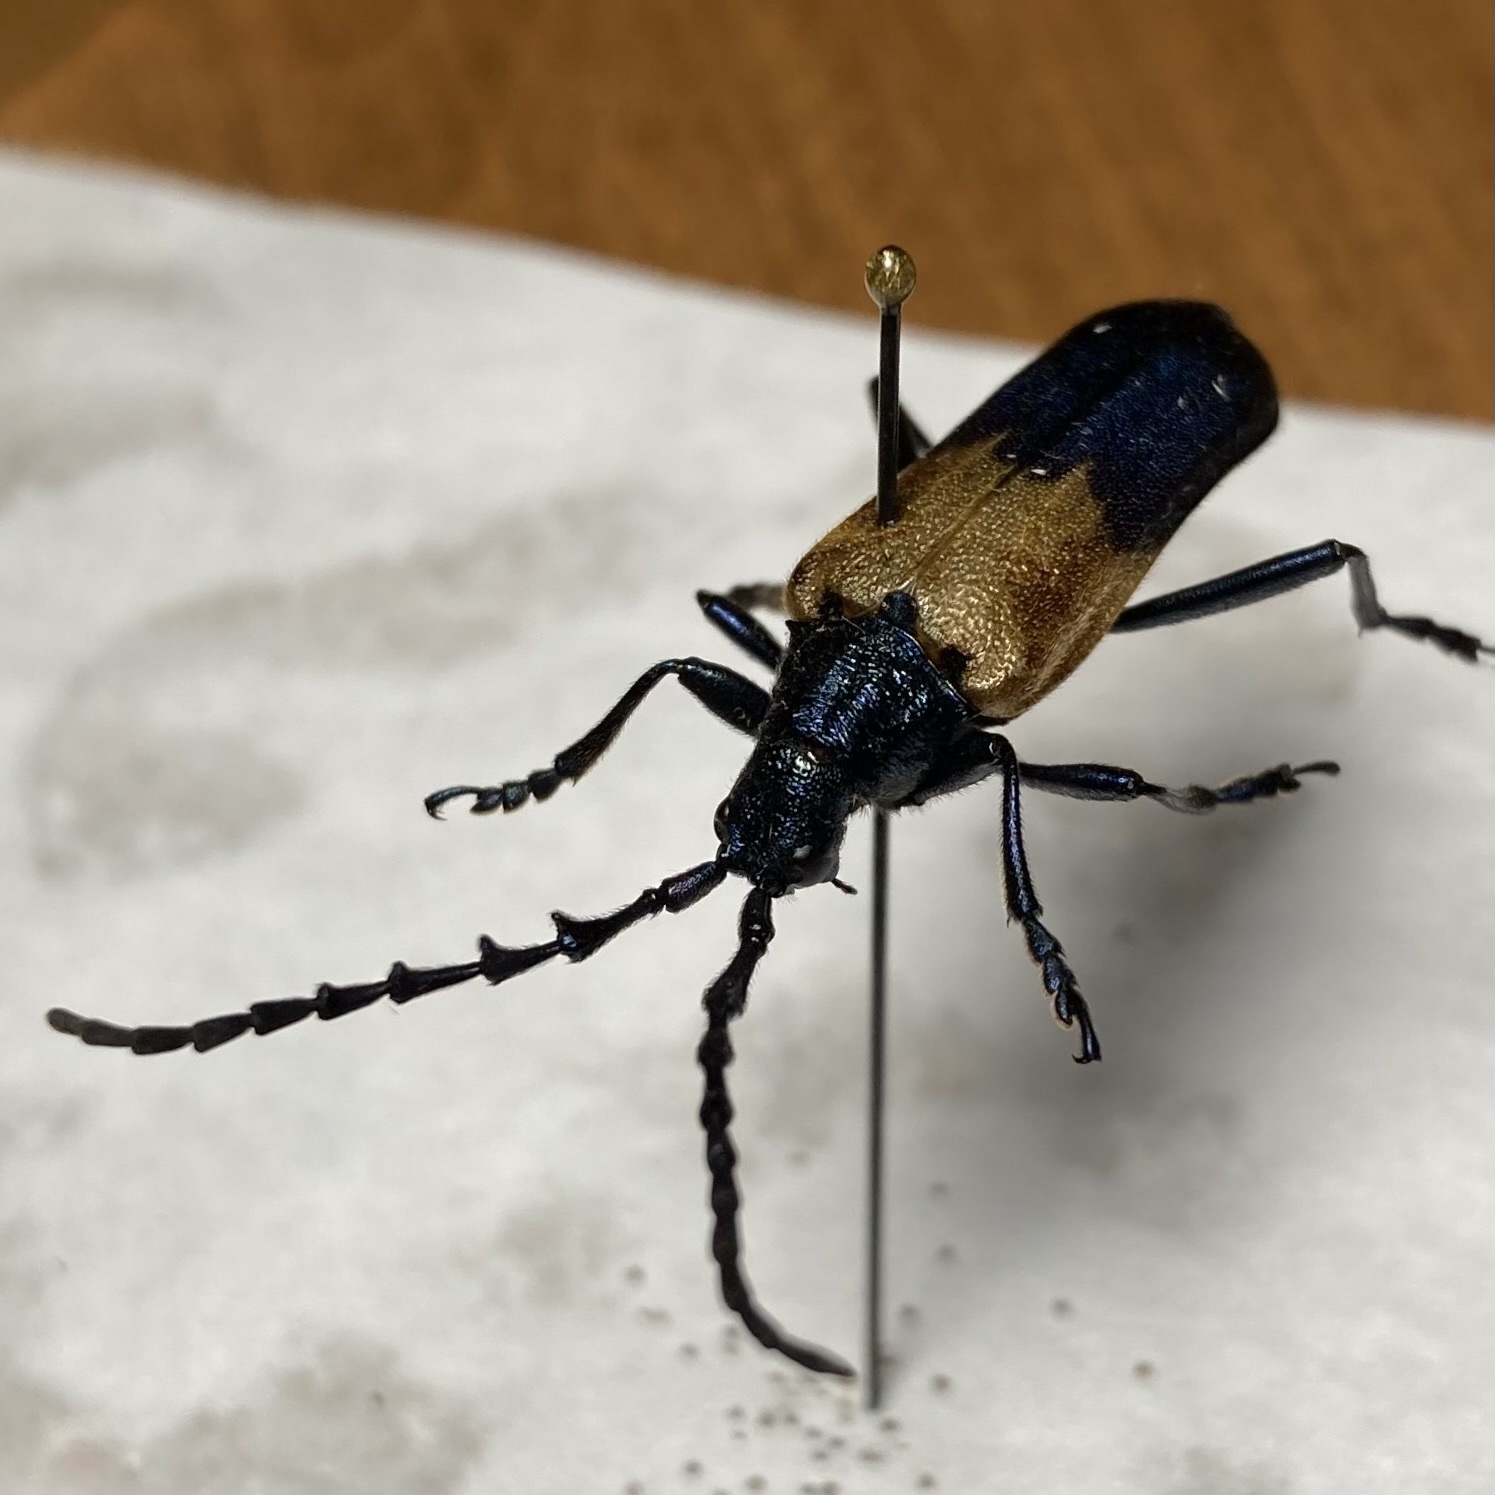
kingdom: Animalia
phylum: Arthropoda
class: Insecta
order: Coleoptera
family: Cerambycidae
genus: Desmocerus
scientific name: Desmocerus palliatus
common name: Eastern elderberry borer
